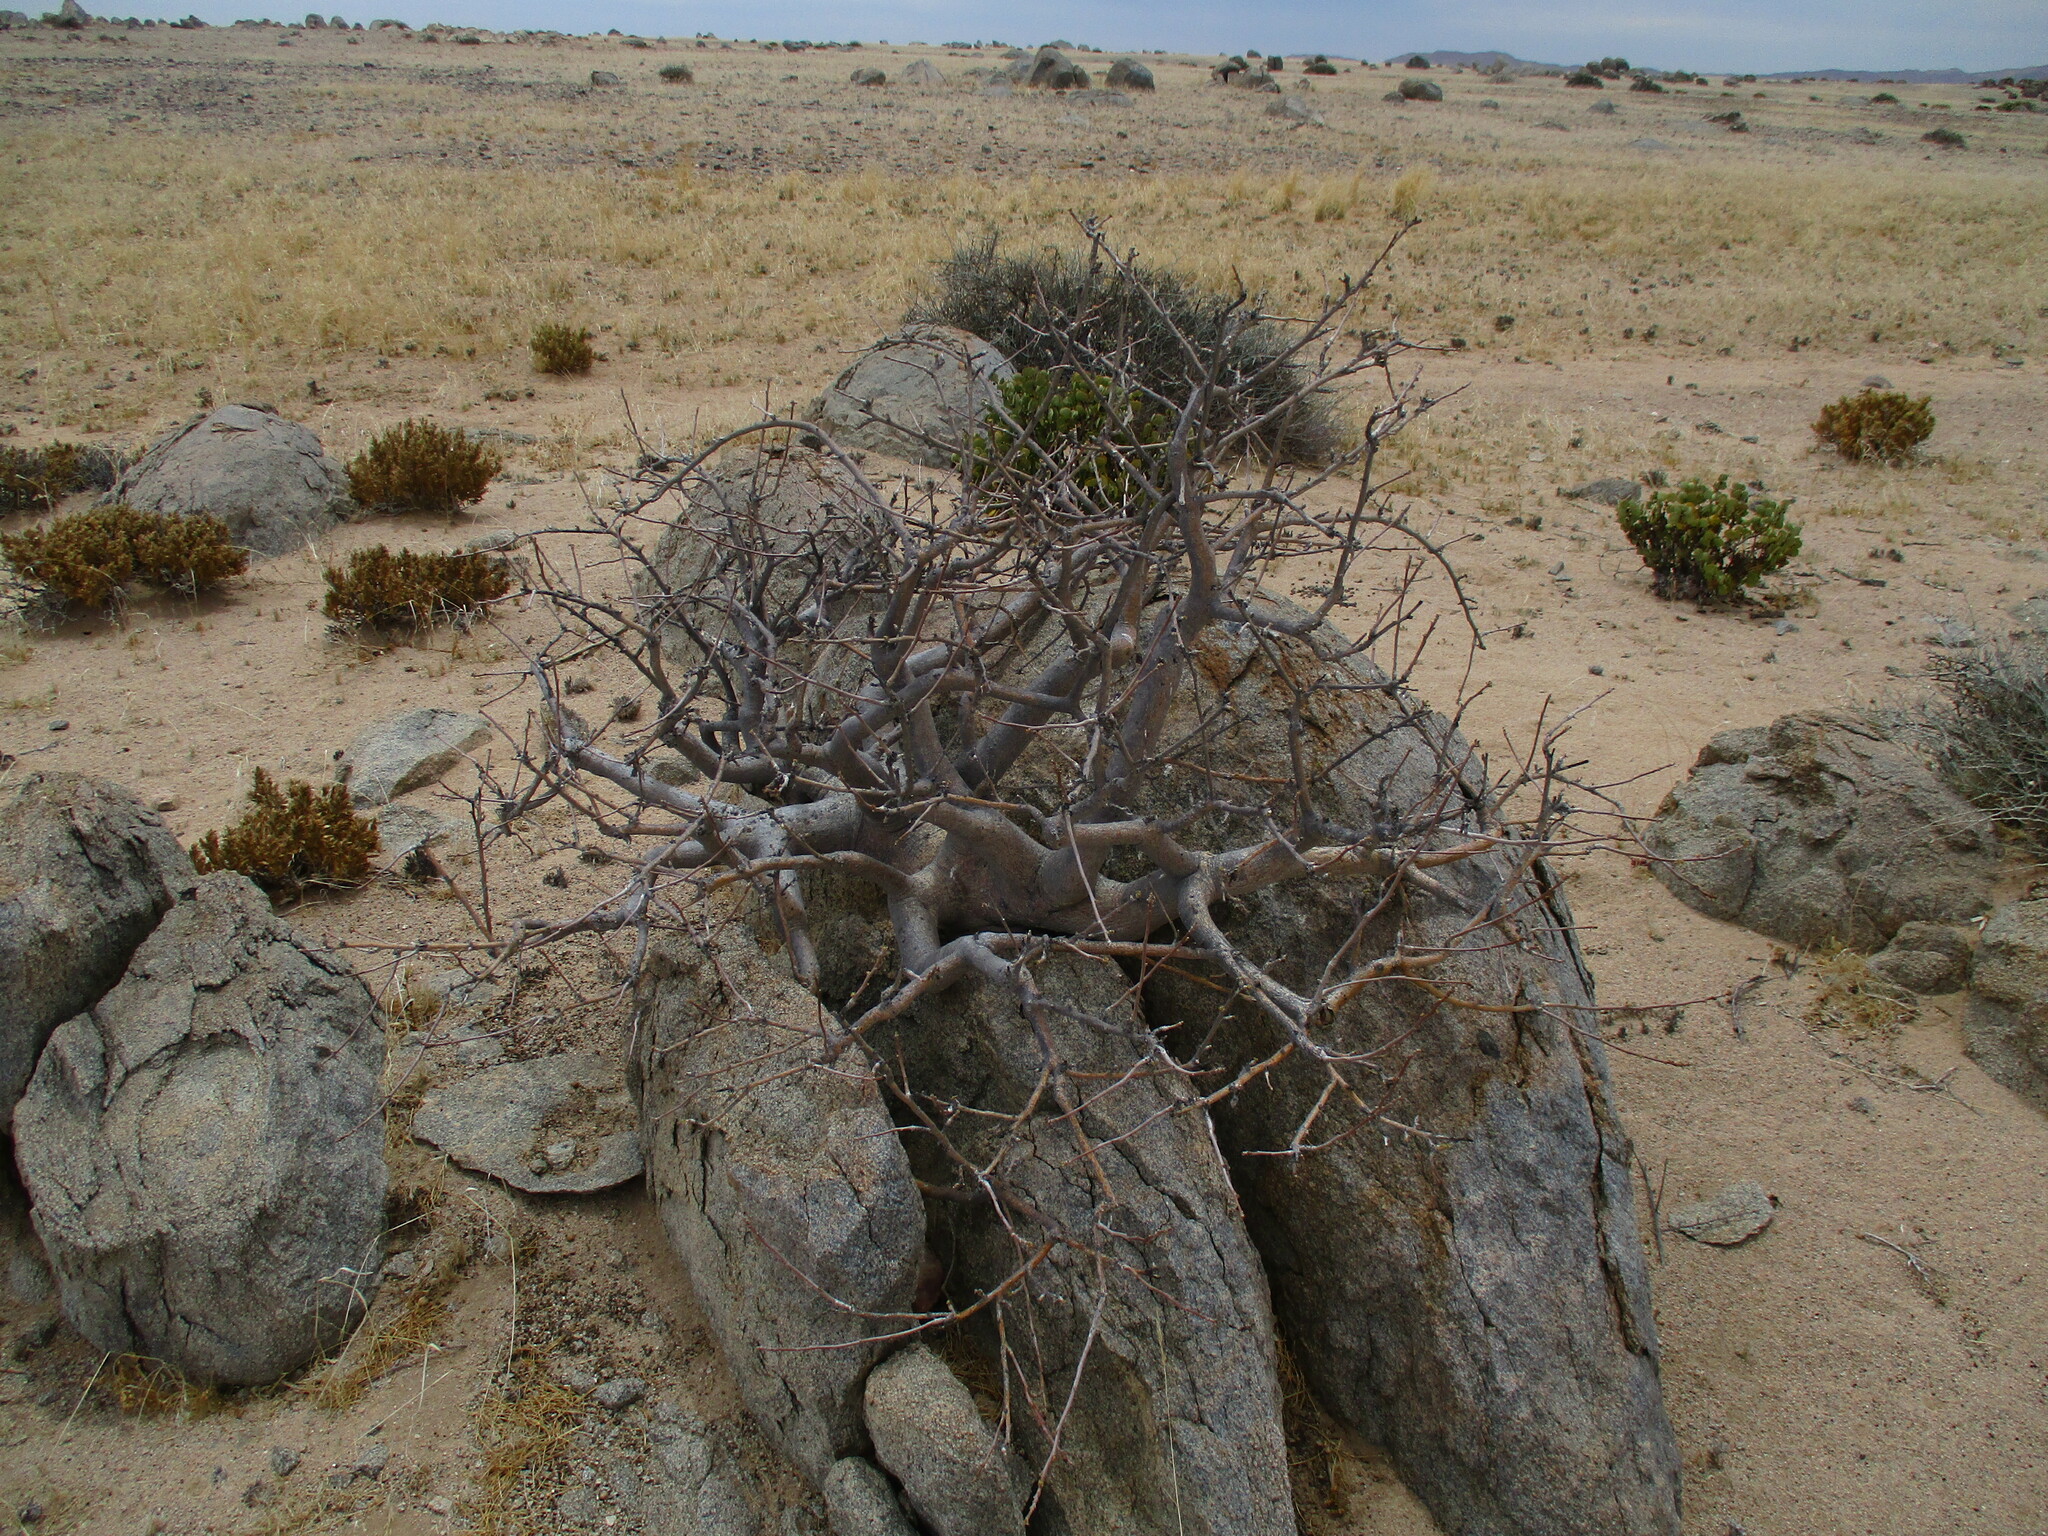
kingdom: Plantae
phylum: Tracheophyta
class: Magnoliopsida
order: Sapindales
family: Burseraceae
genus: Commiphora
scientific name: Commiphora saxicola
